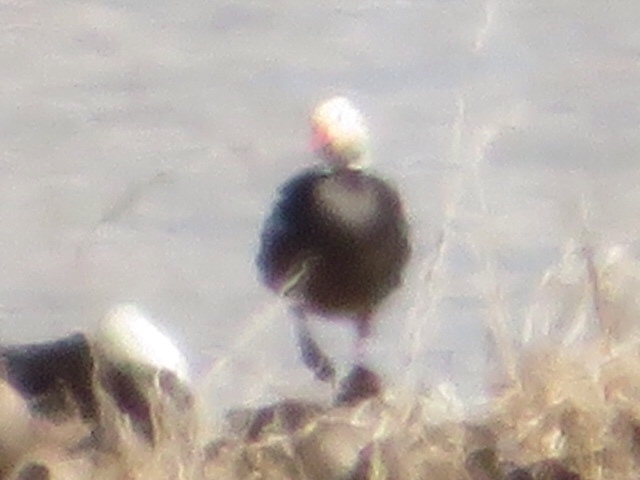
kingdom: Animalia
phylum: Chordata
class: Aves
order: Anseriformes
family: Anatidae
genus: Anser
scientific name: Anser caerulescens
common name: Snow goose
